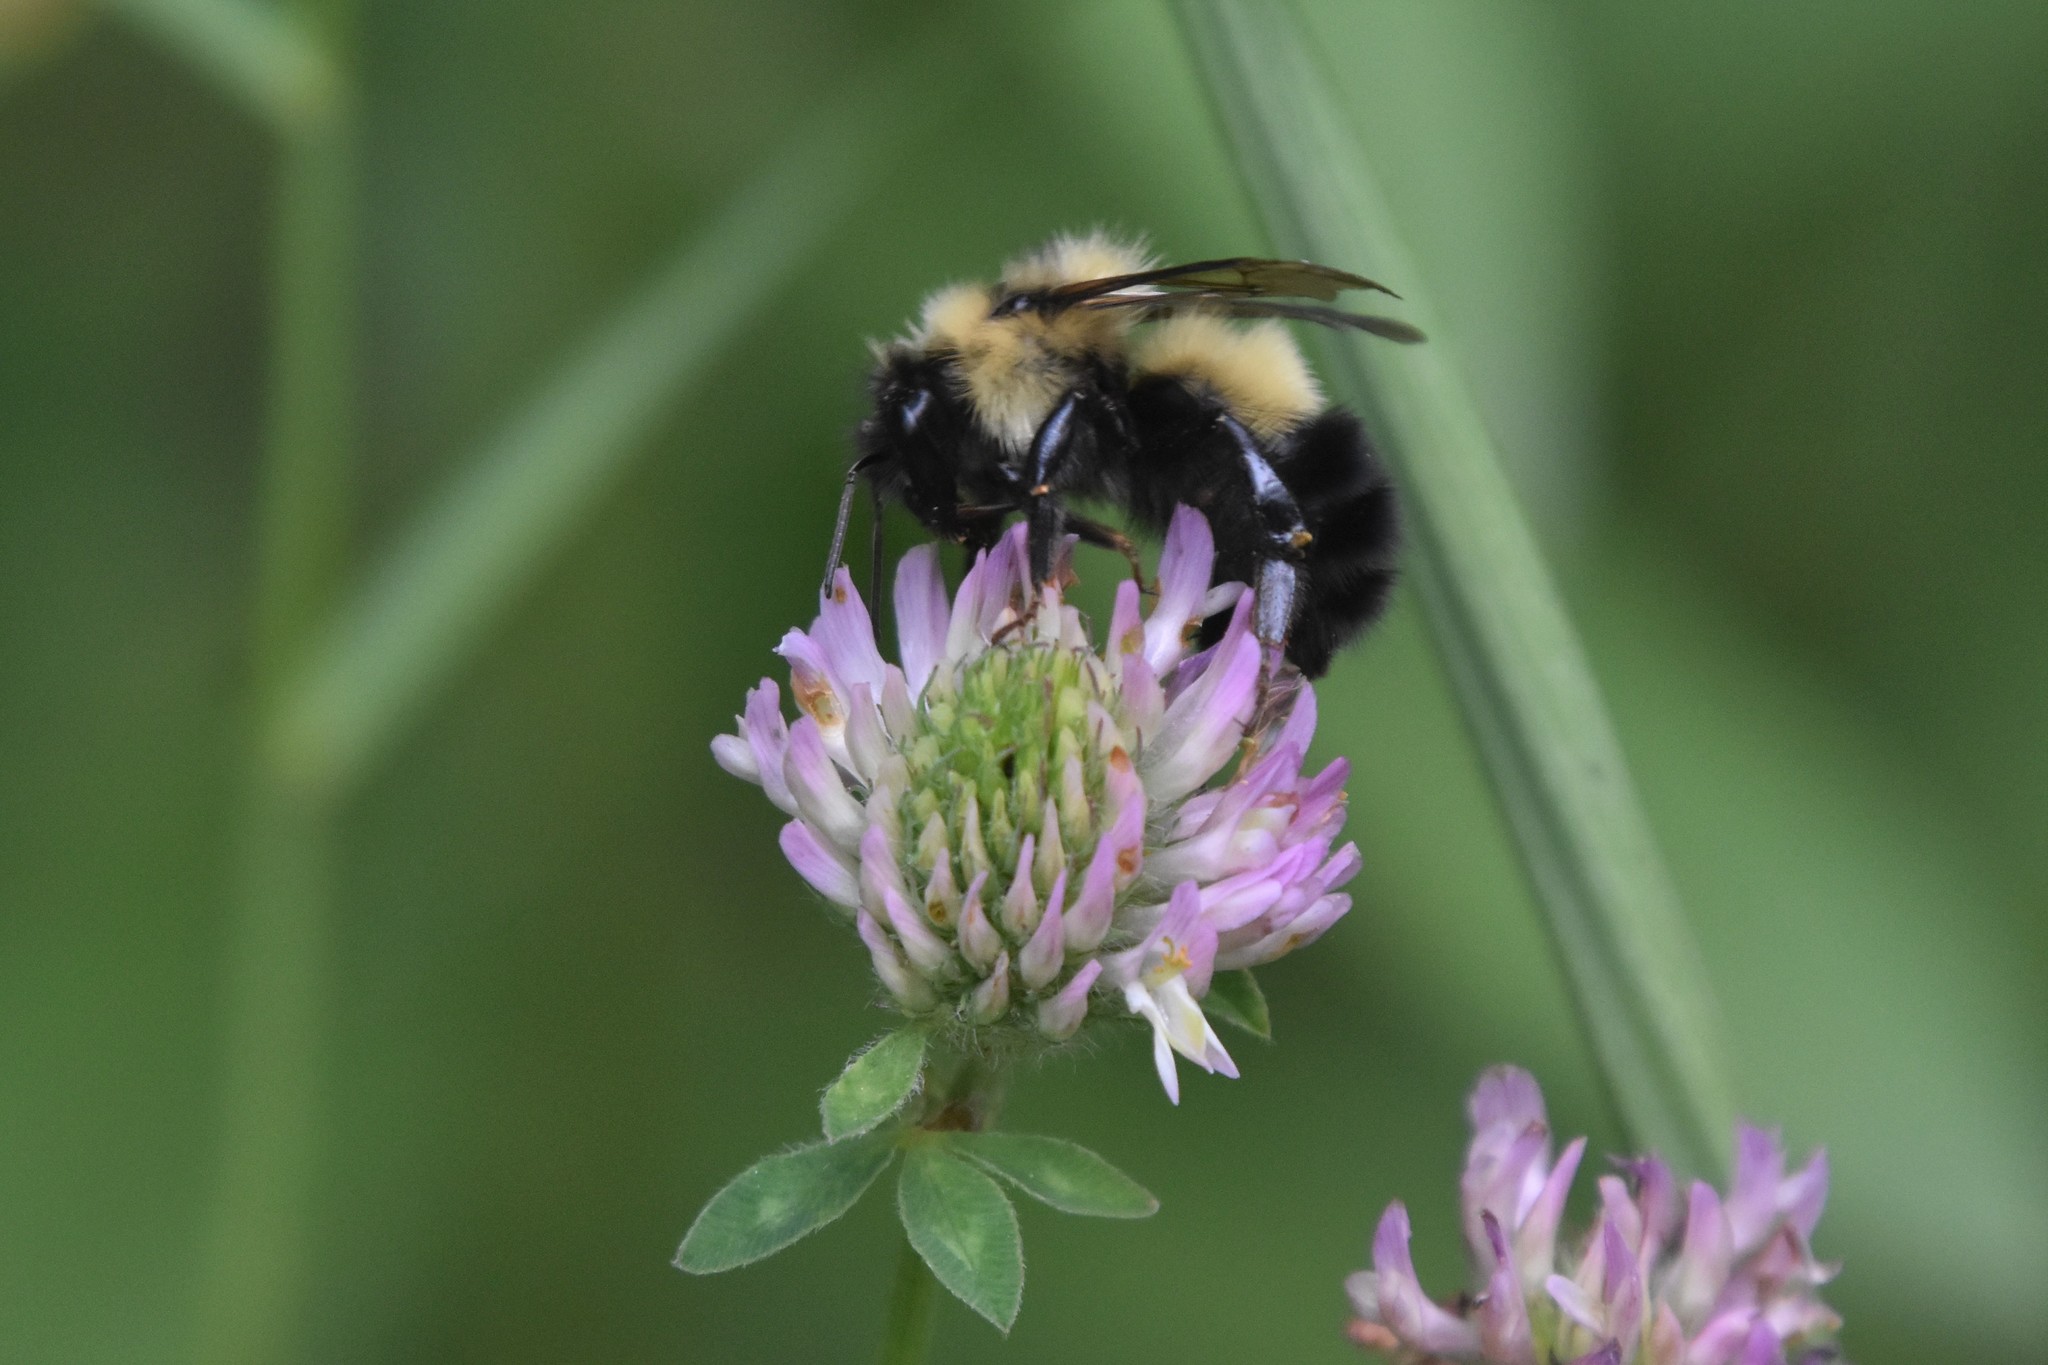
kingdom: Animalia
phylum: Arthropoda
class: Insecta
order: Hymenoptera
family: Apidae
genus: Bombus
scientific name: Bombus vagans
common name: Half-black bumble bee
